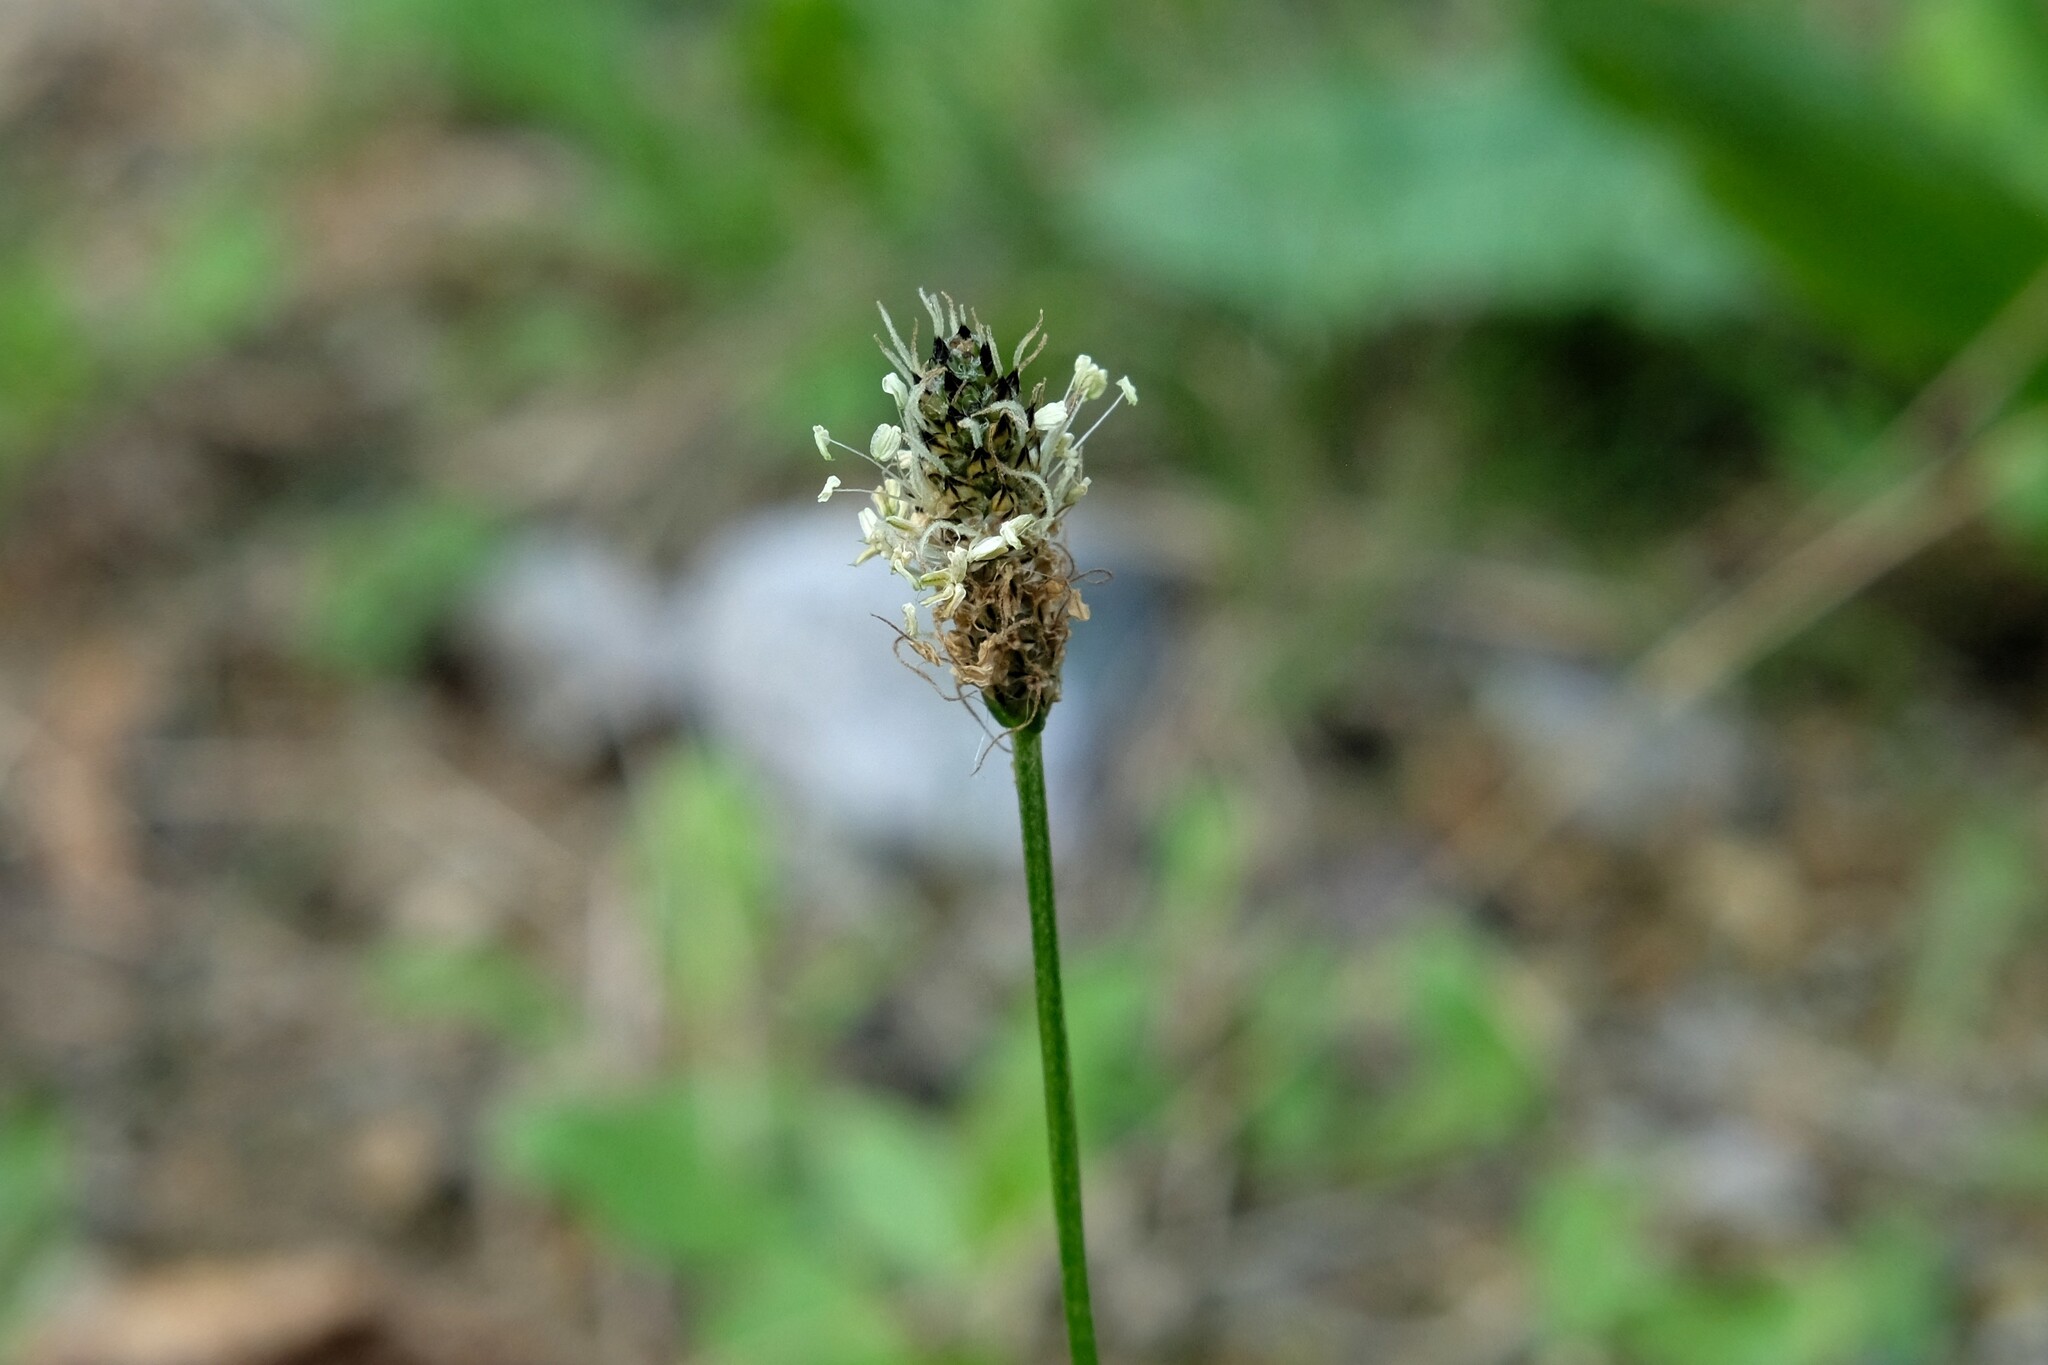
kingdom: Plantae
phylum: Tracheophyta
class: Magnoliopsida
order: Lamiales
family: Plantaginaceae
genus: Plantago
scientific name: Plantago lanceolata
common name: Ribwort plantain
